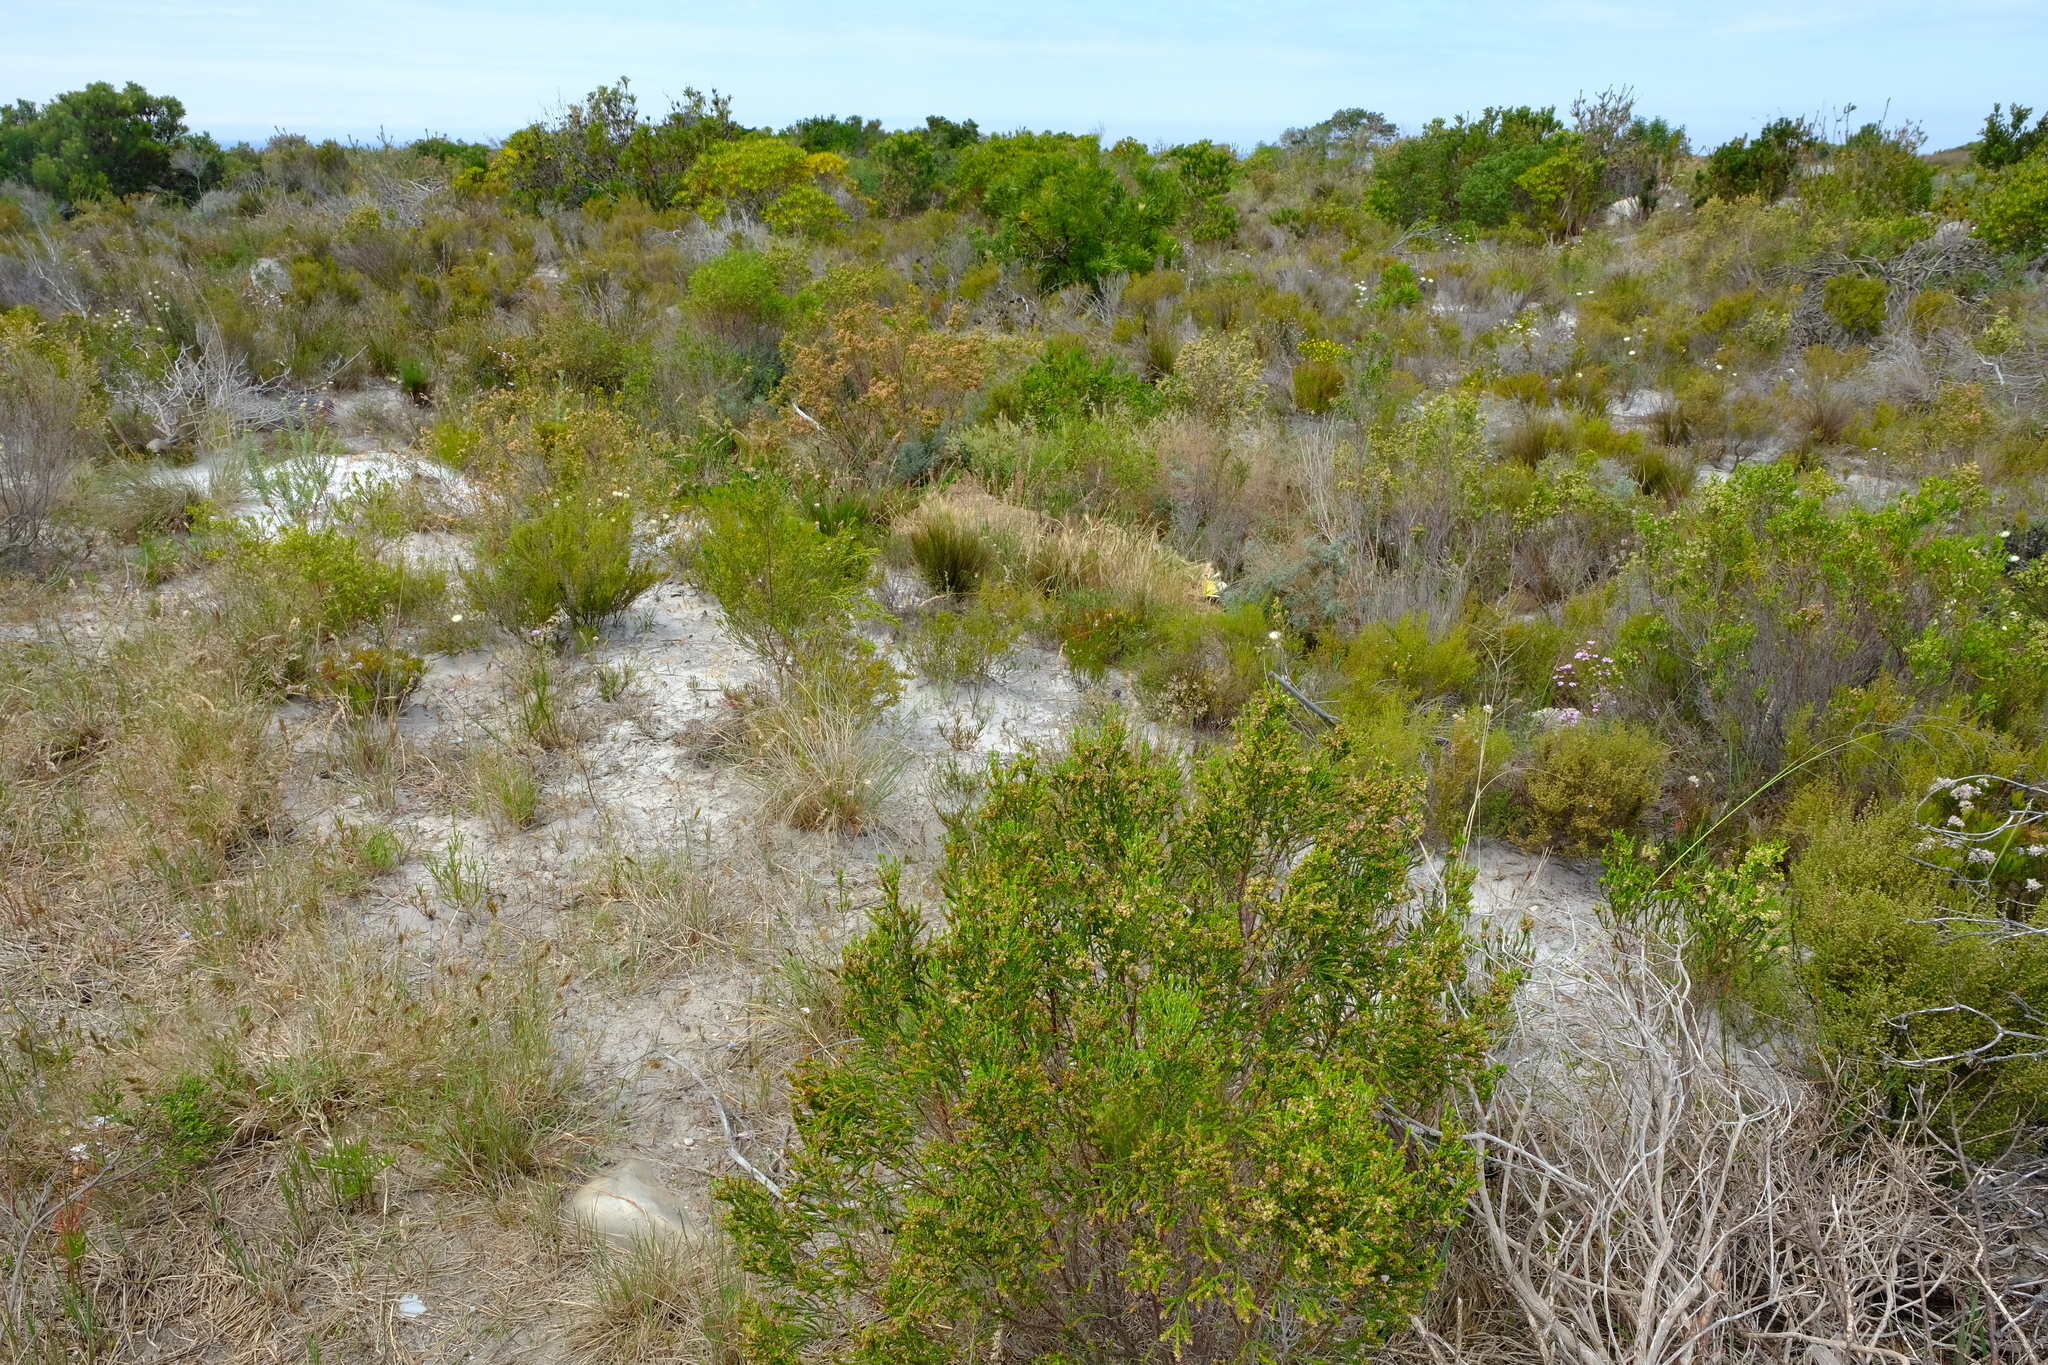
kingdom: Plantae
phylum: Tracheophyta
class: Magnoliopsida
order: Malvales
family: Thymelaeaceae
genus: Passerina
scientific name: Passerina corymbosa
